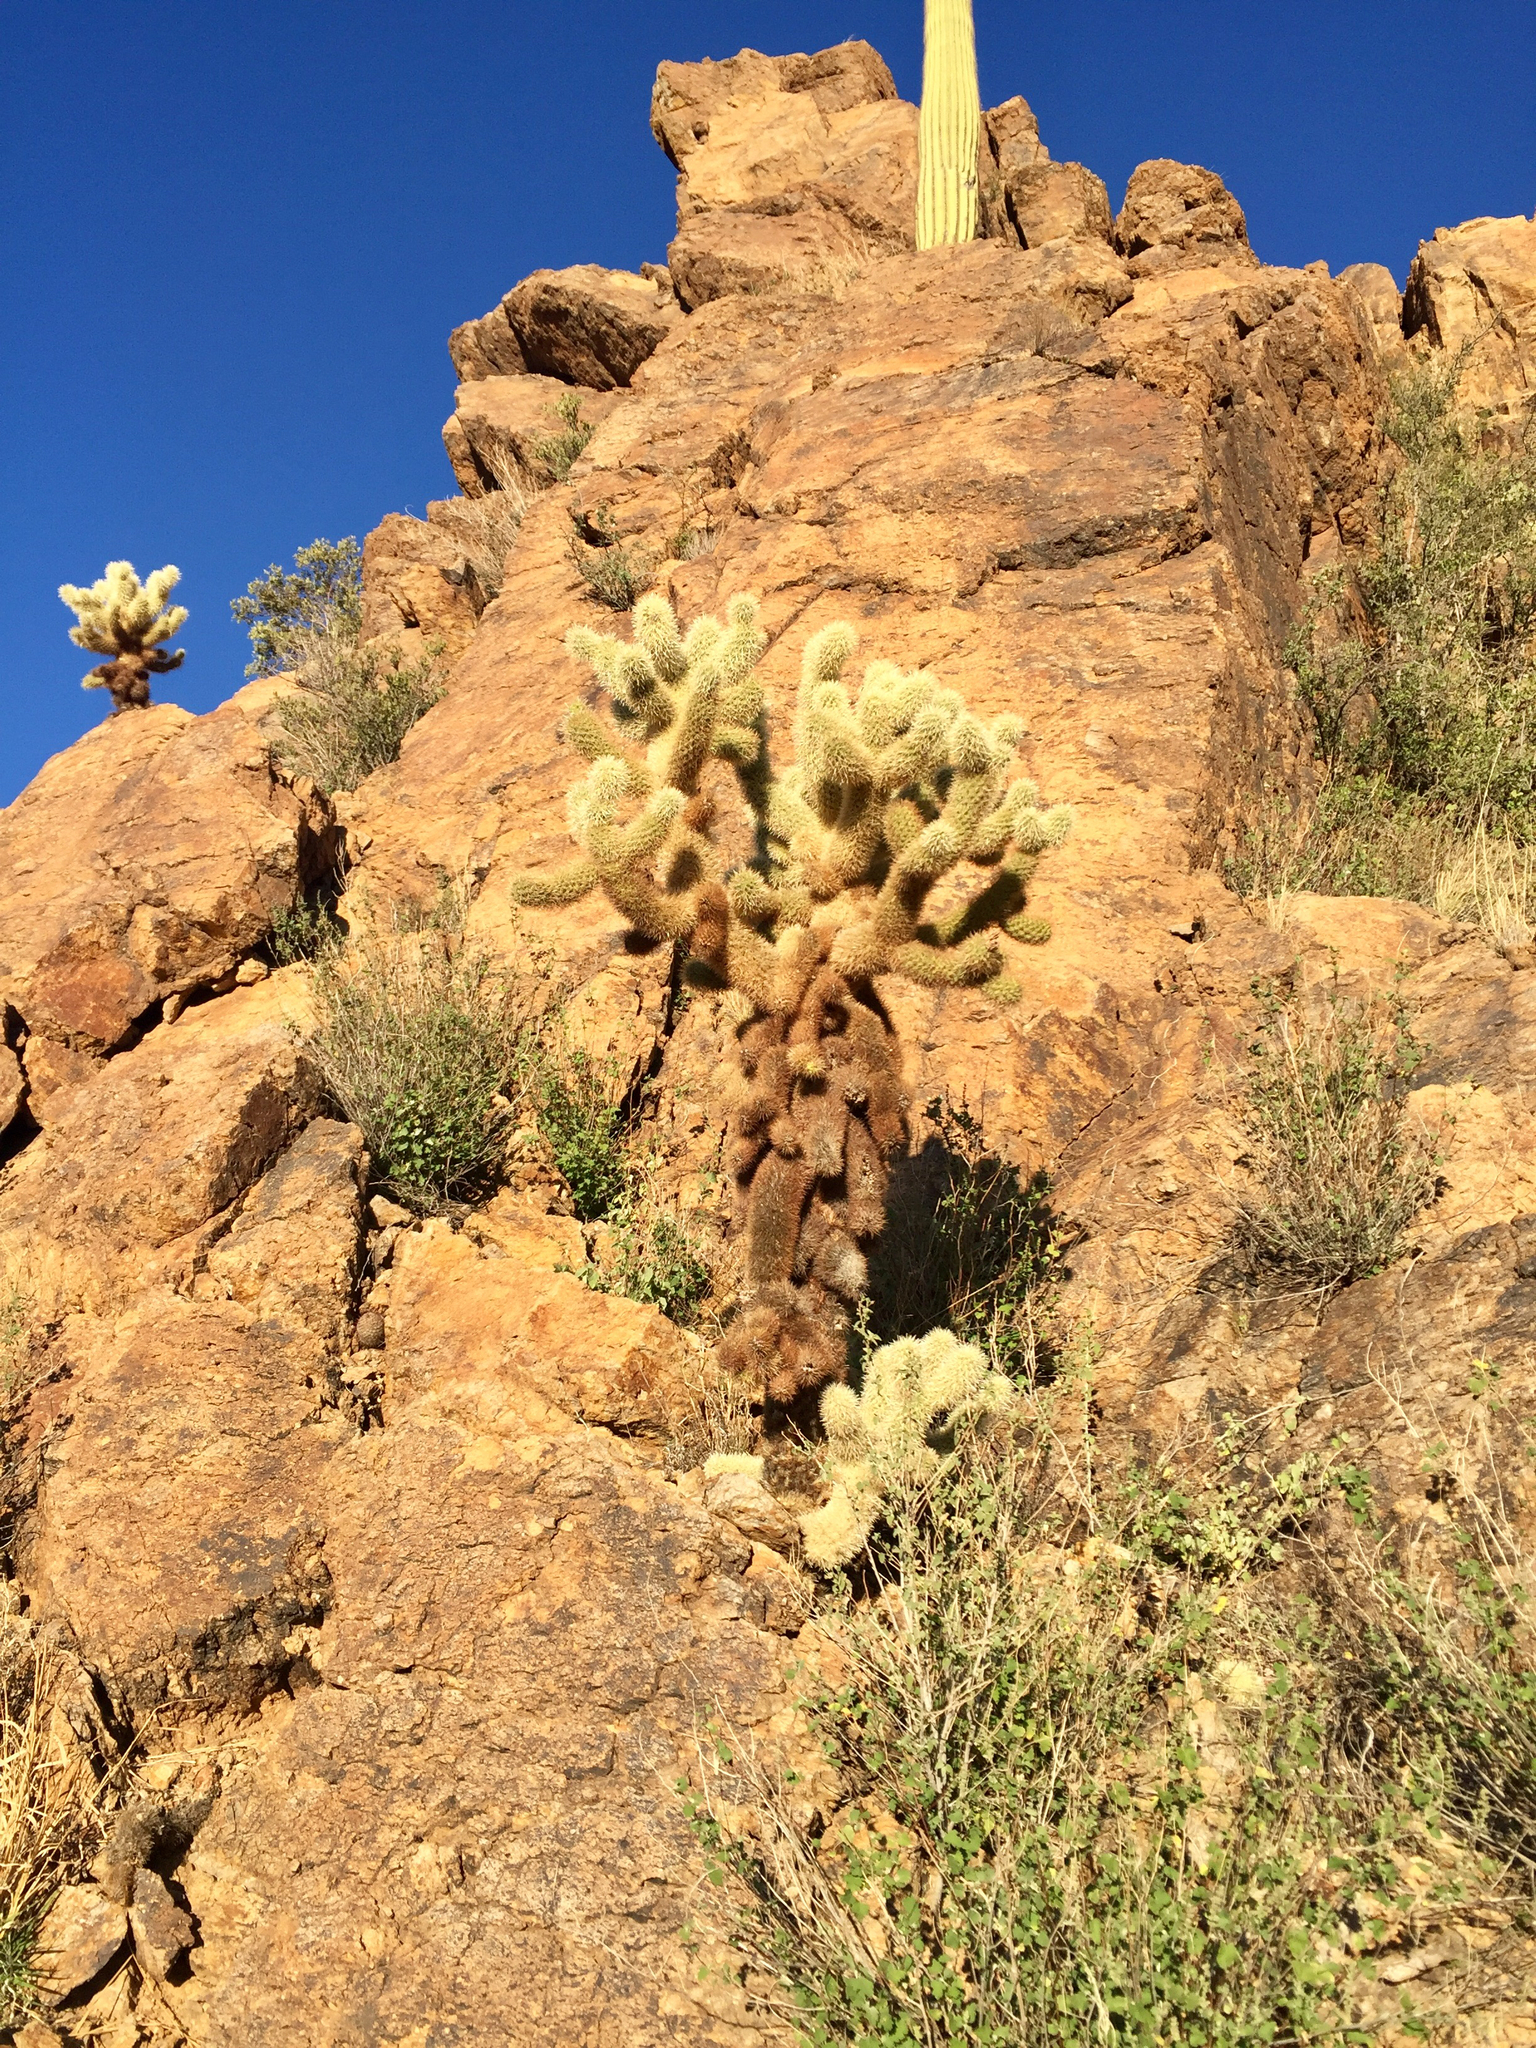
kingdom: Plantae
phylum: Tracheophyta
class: Magnoliopsida
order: Caryophyllales
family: Cactaceae
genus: Cylindropuntia
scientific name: Cylindropuntia fosbergii
